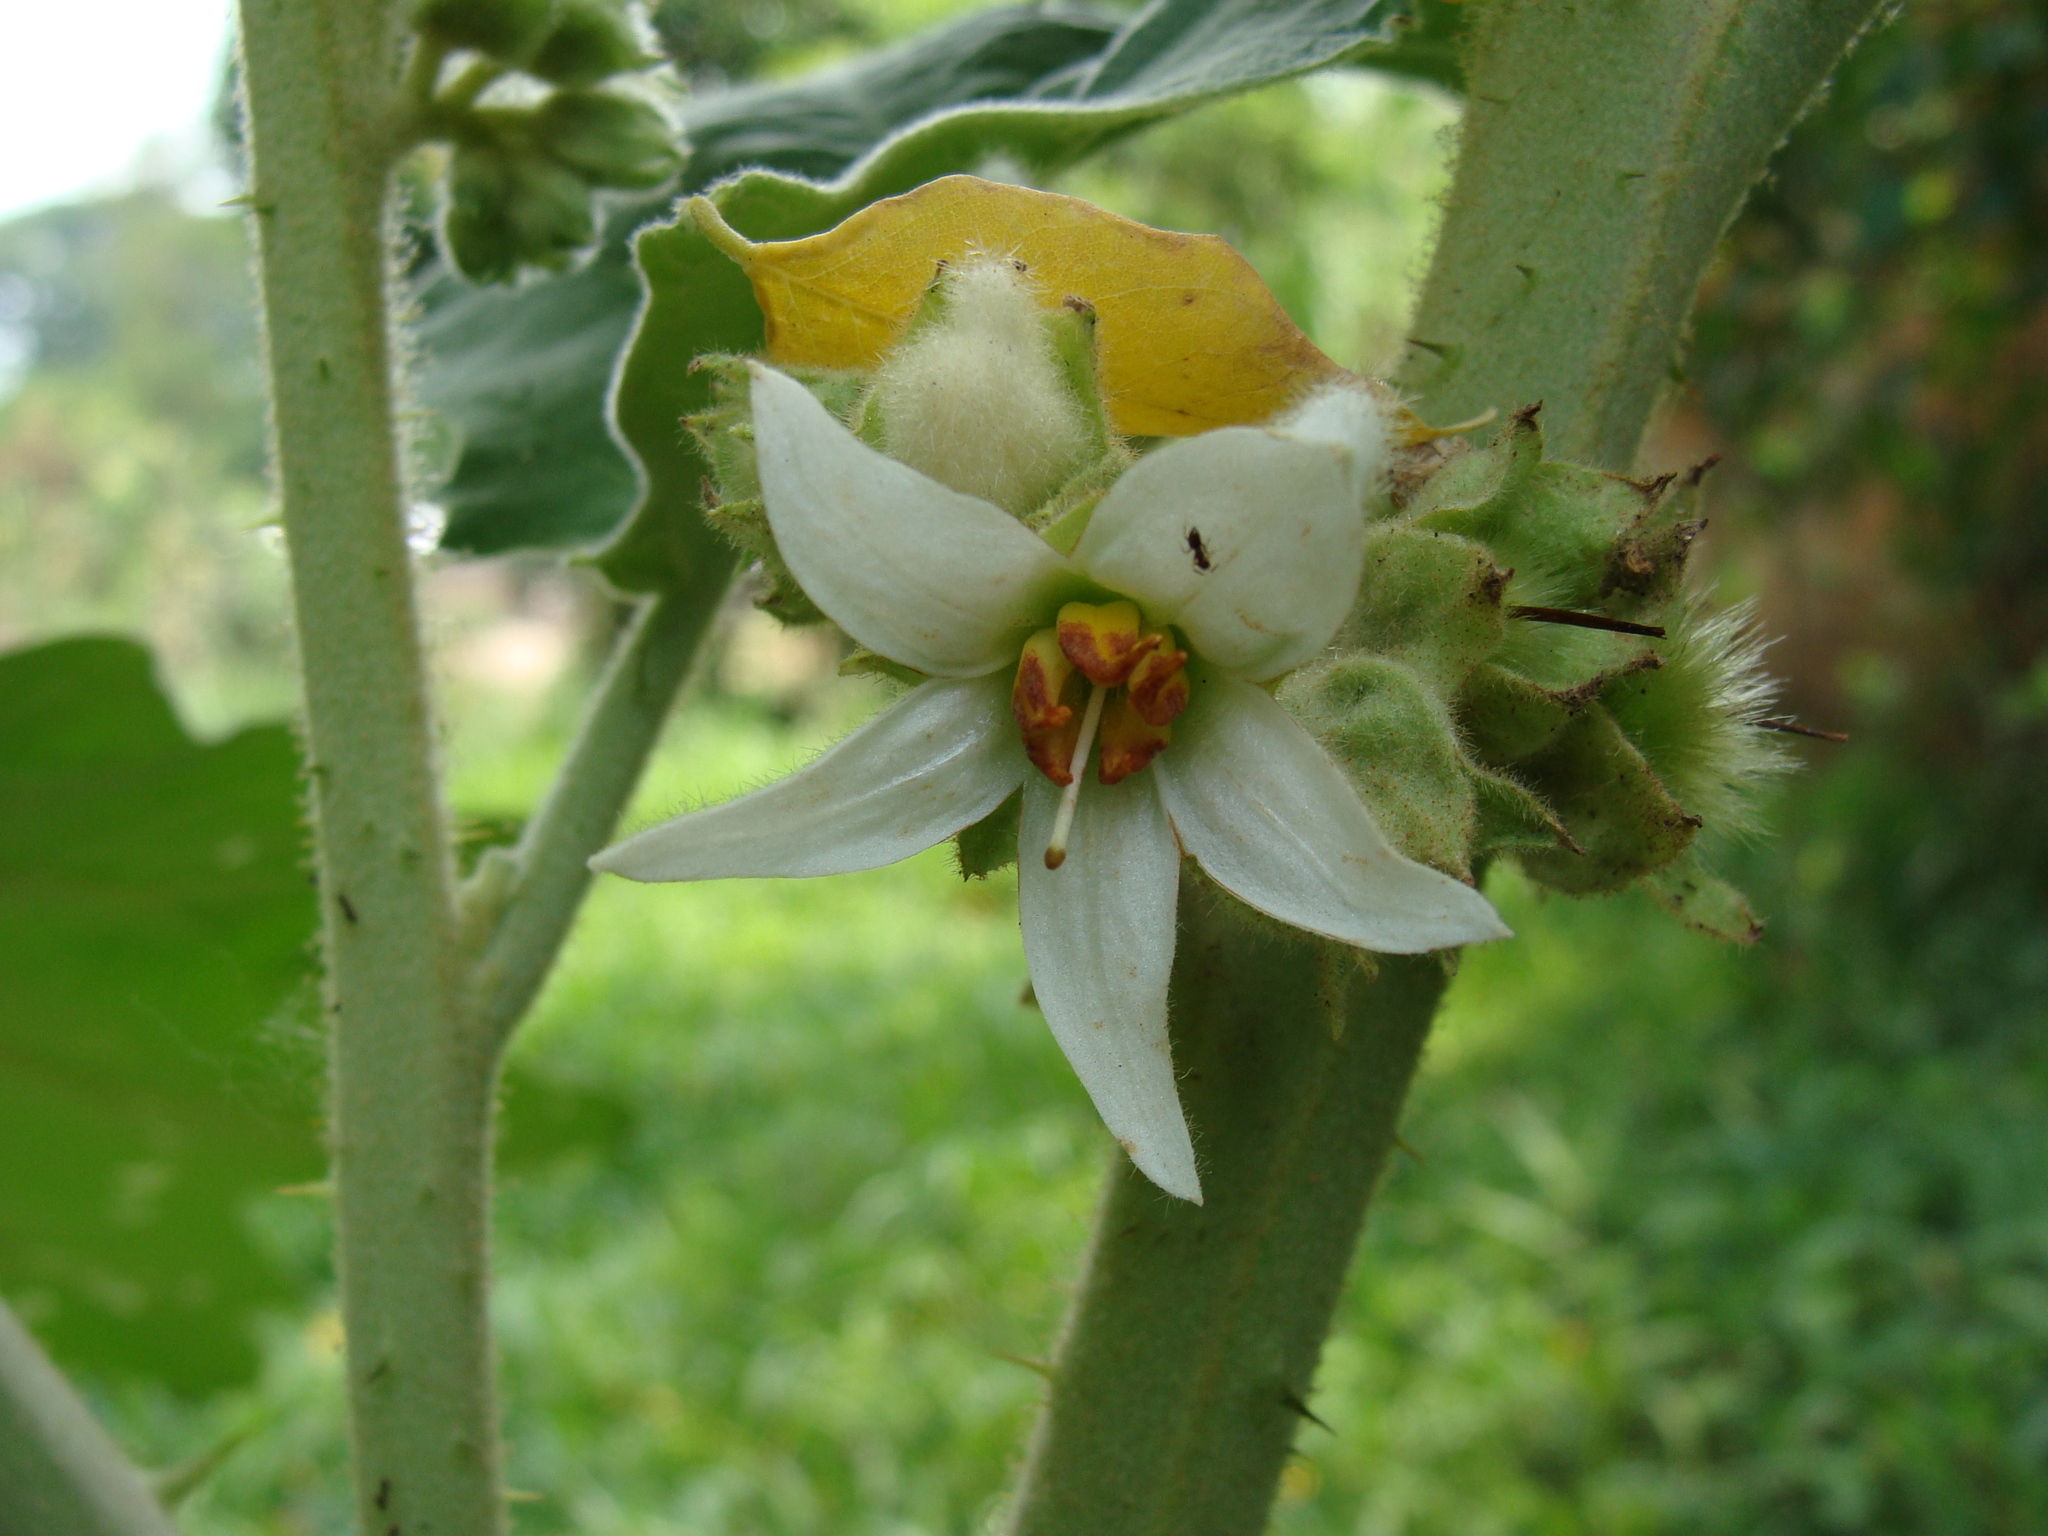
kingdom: Plantae
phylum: Tracheophyta
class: Magnoliopsida
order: Solanales
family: Solanaceae
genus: Solanum
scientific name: Solanum hirtum
